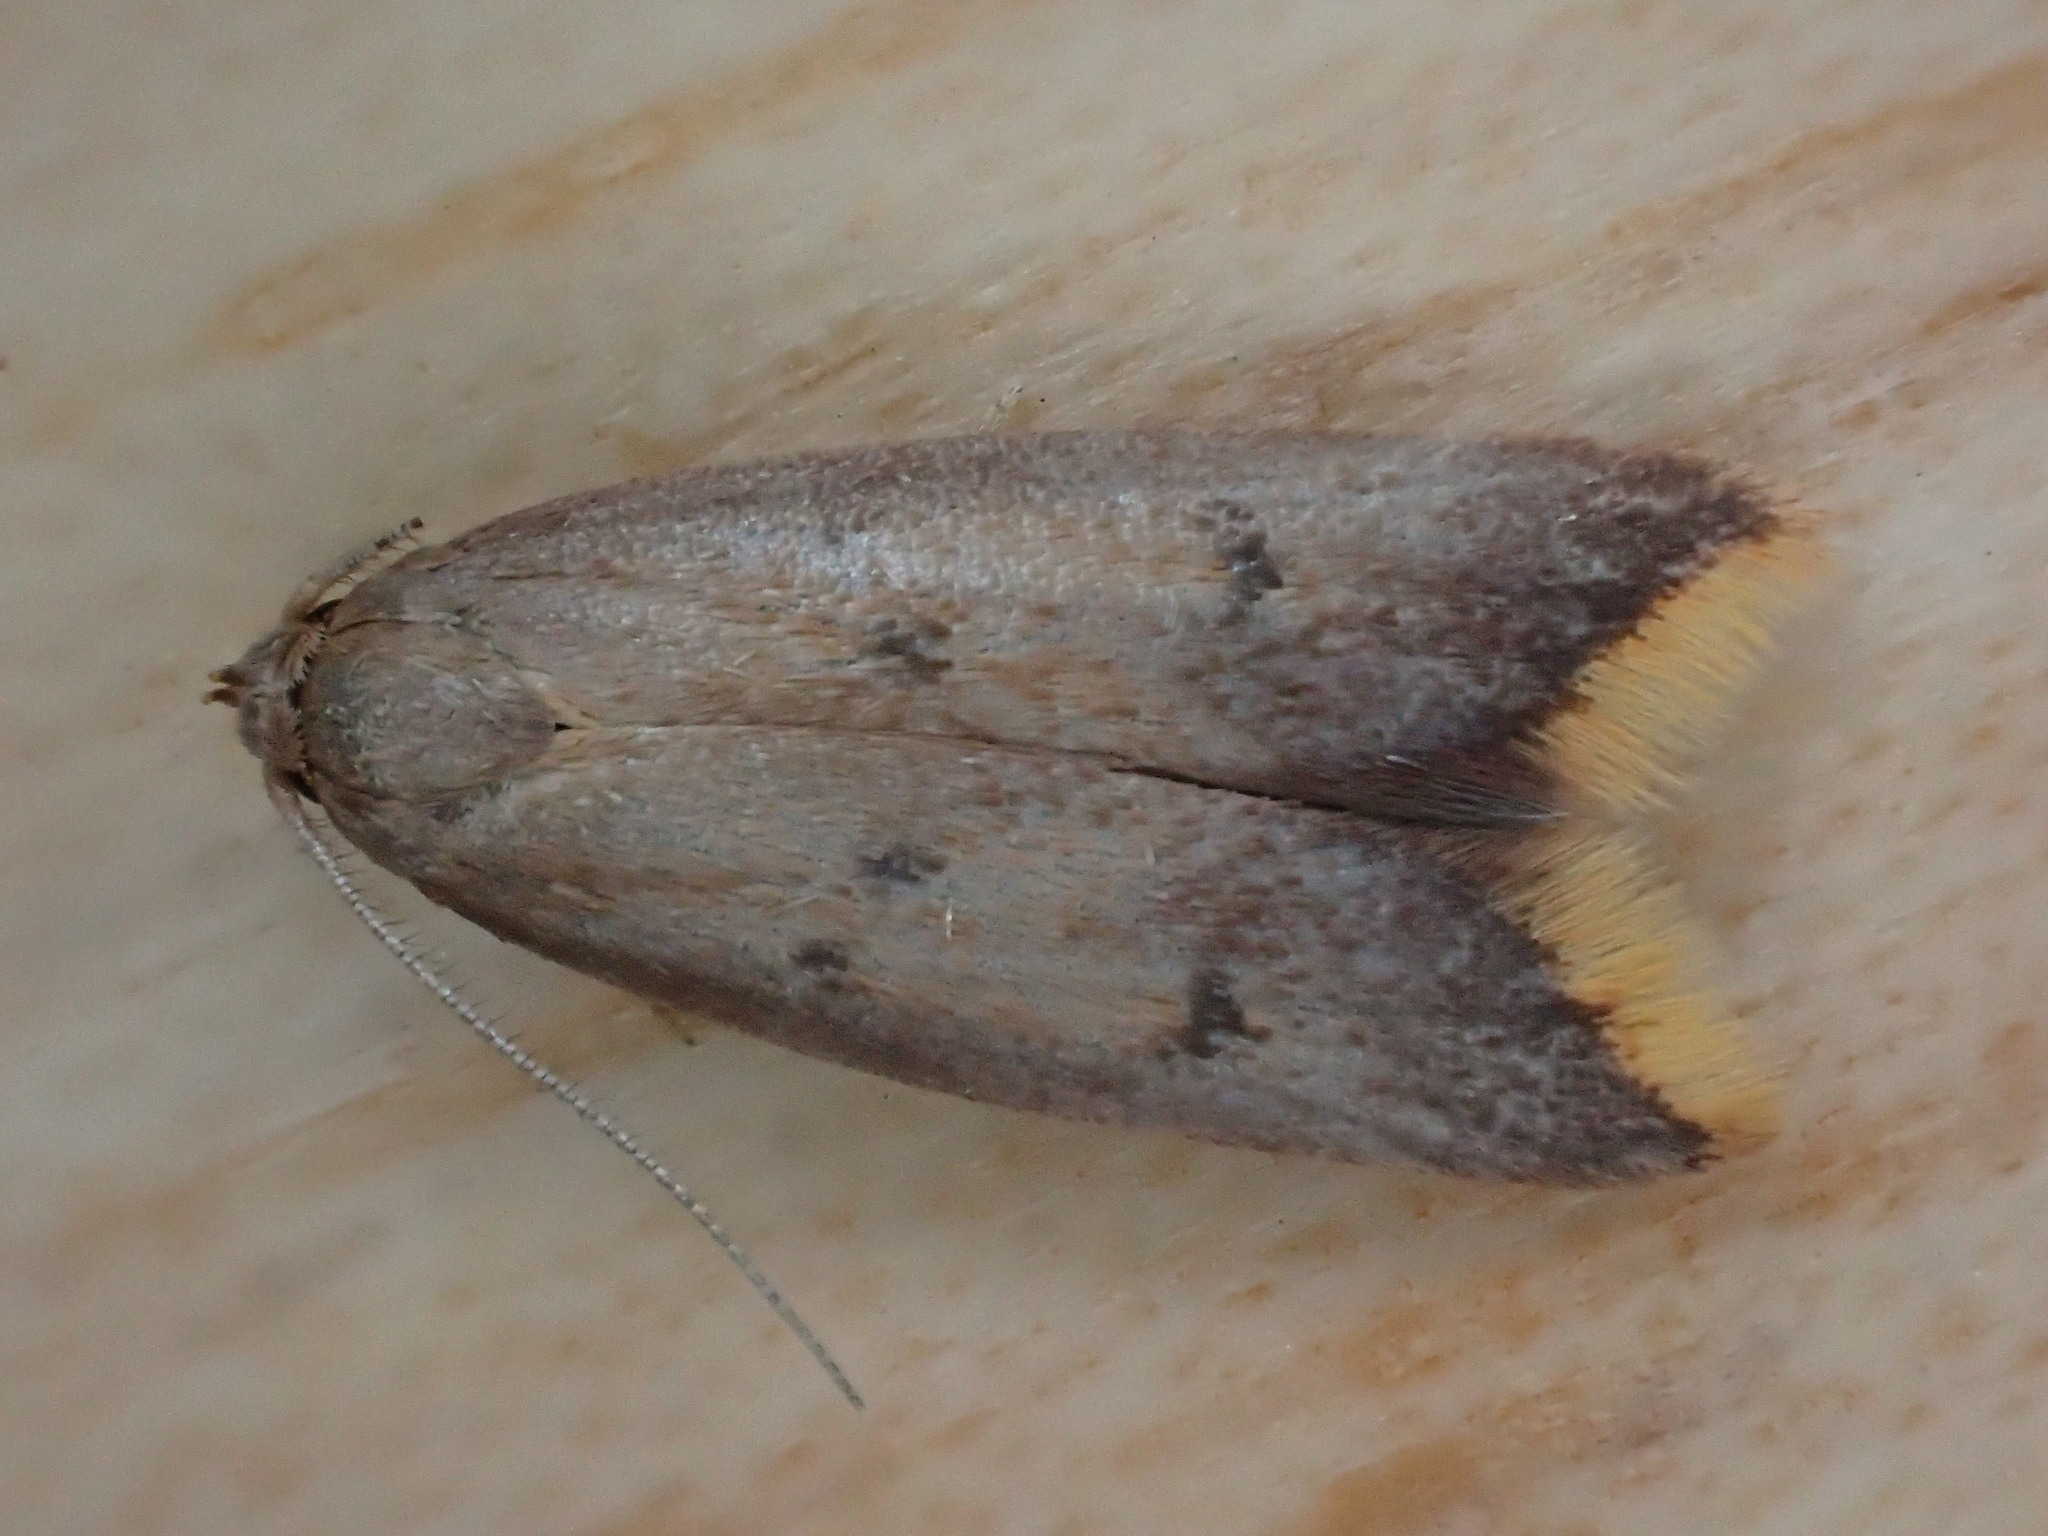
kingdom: Animalia
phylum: Arthropoda
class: Insecta
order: Lepidoptera
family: Oecophoridae
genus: Tachystola
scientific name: Tachystola acroxantha
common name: Ruddy streak
